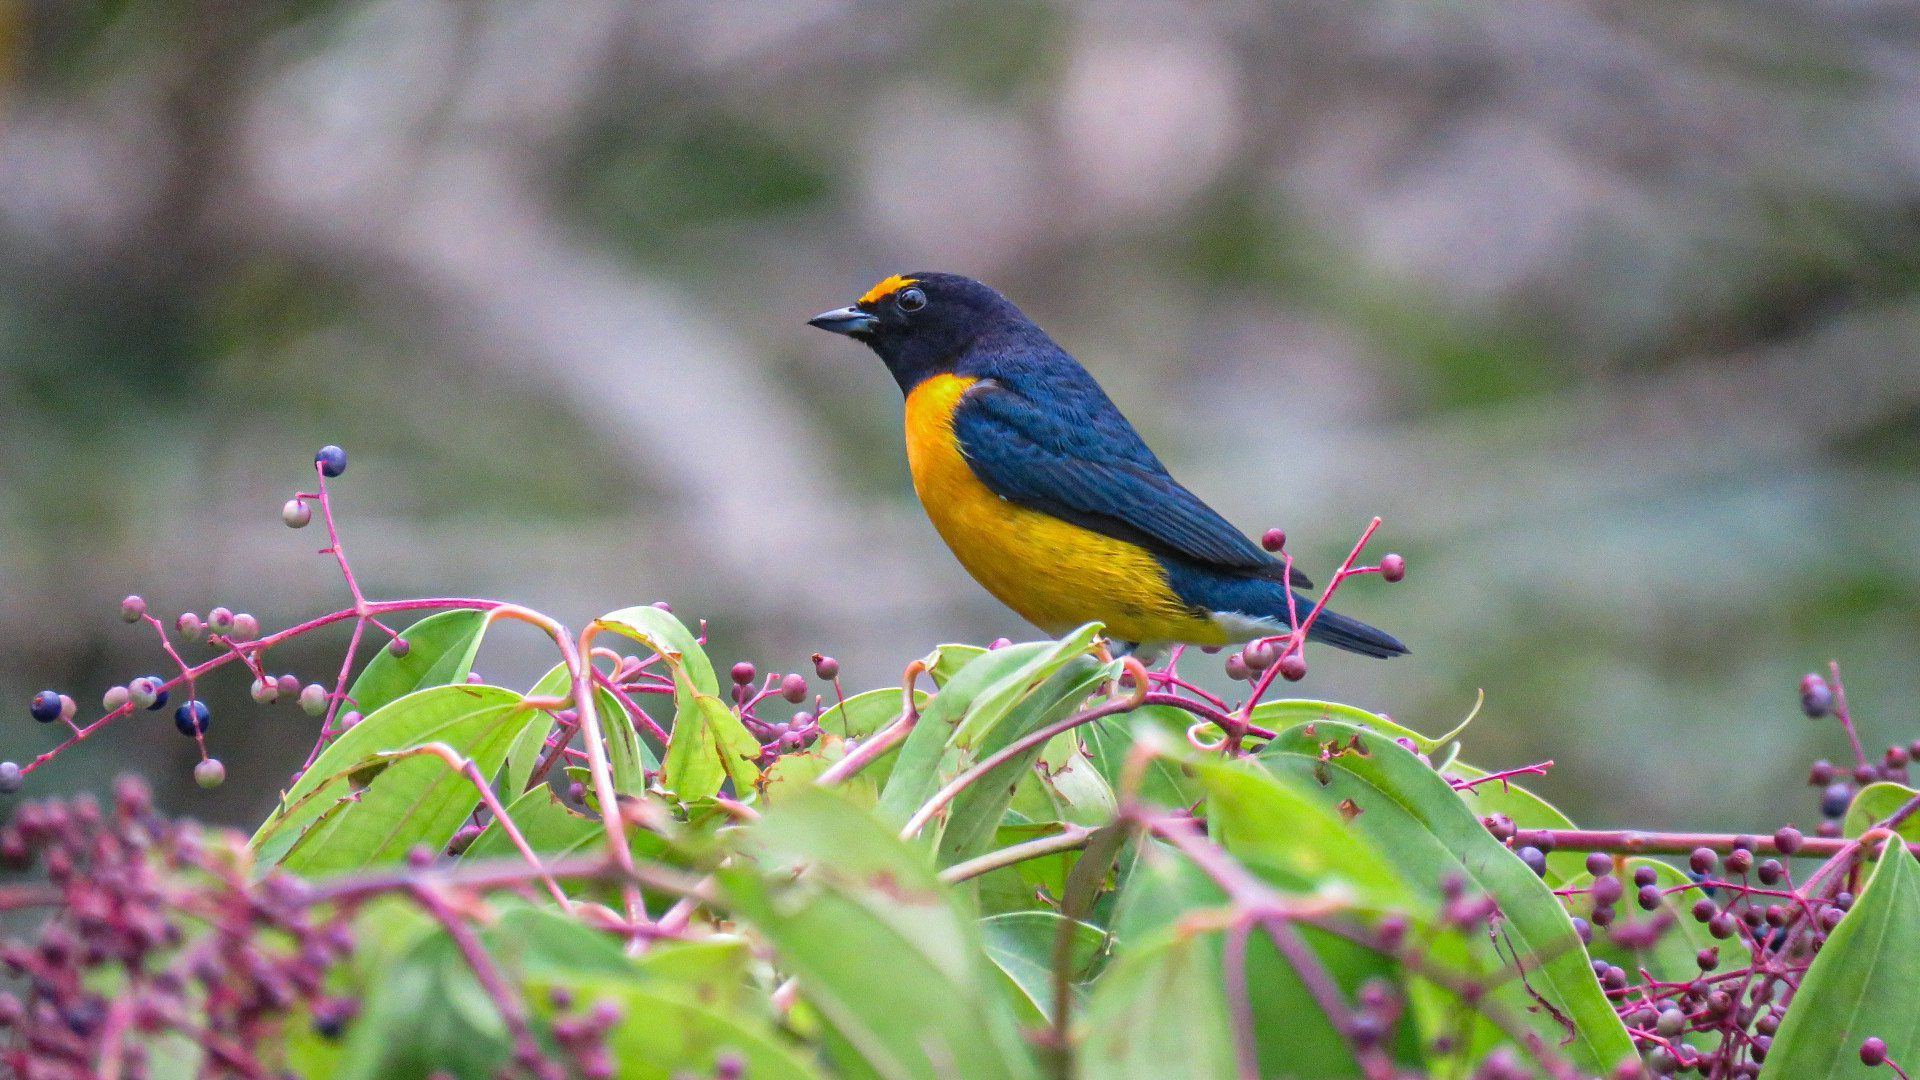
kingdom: Animalia
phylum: Chordata
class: Aves
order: Passeriformes
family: Fringillidae
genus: Euphonia
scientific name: Euphonia minuta
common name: White-vented euphonia
